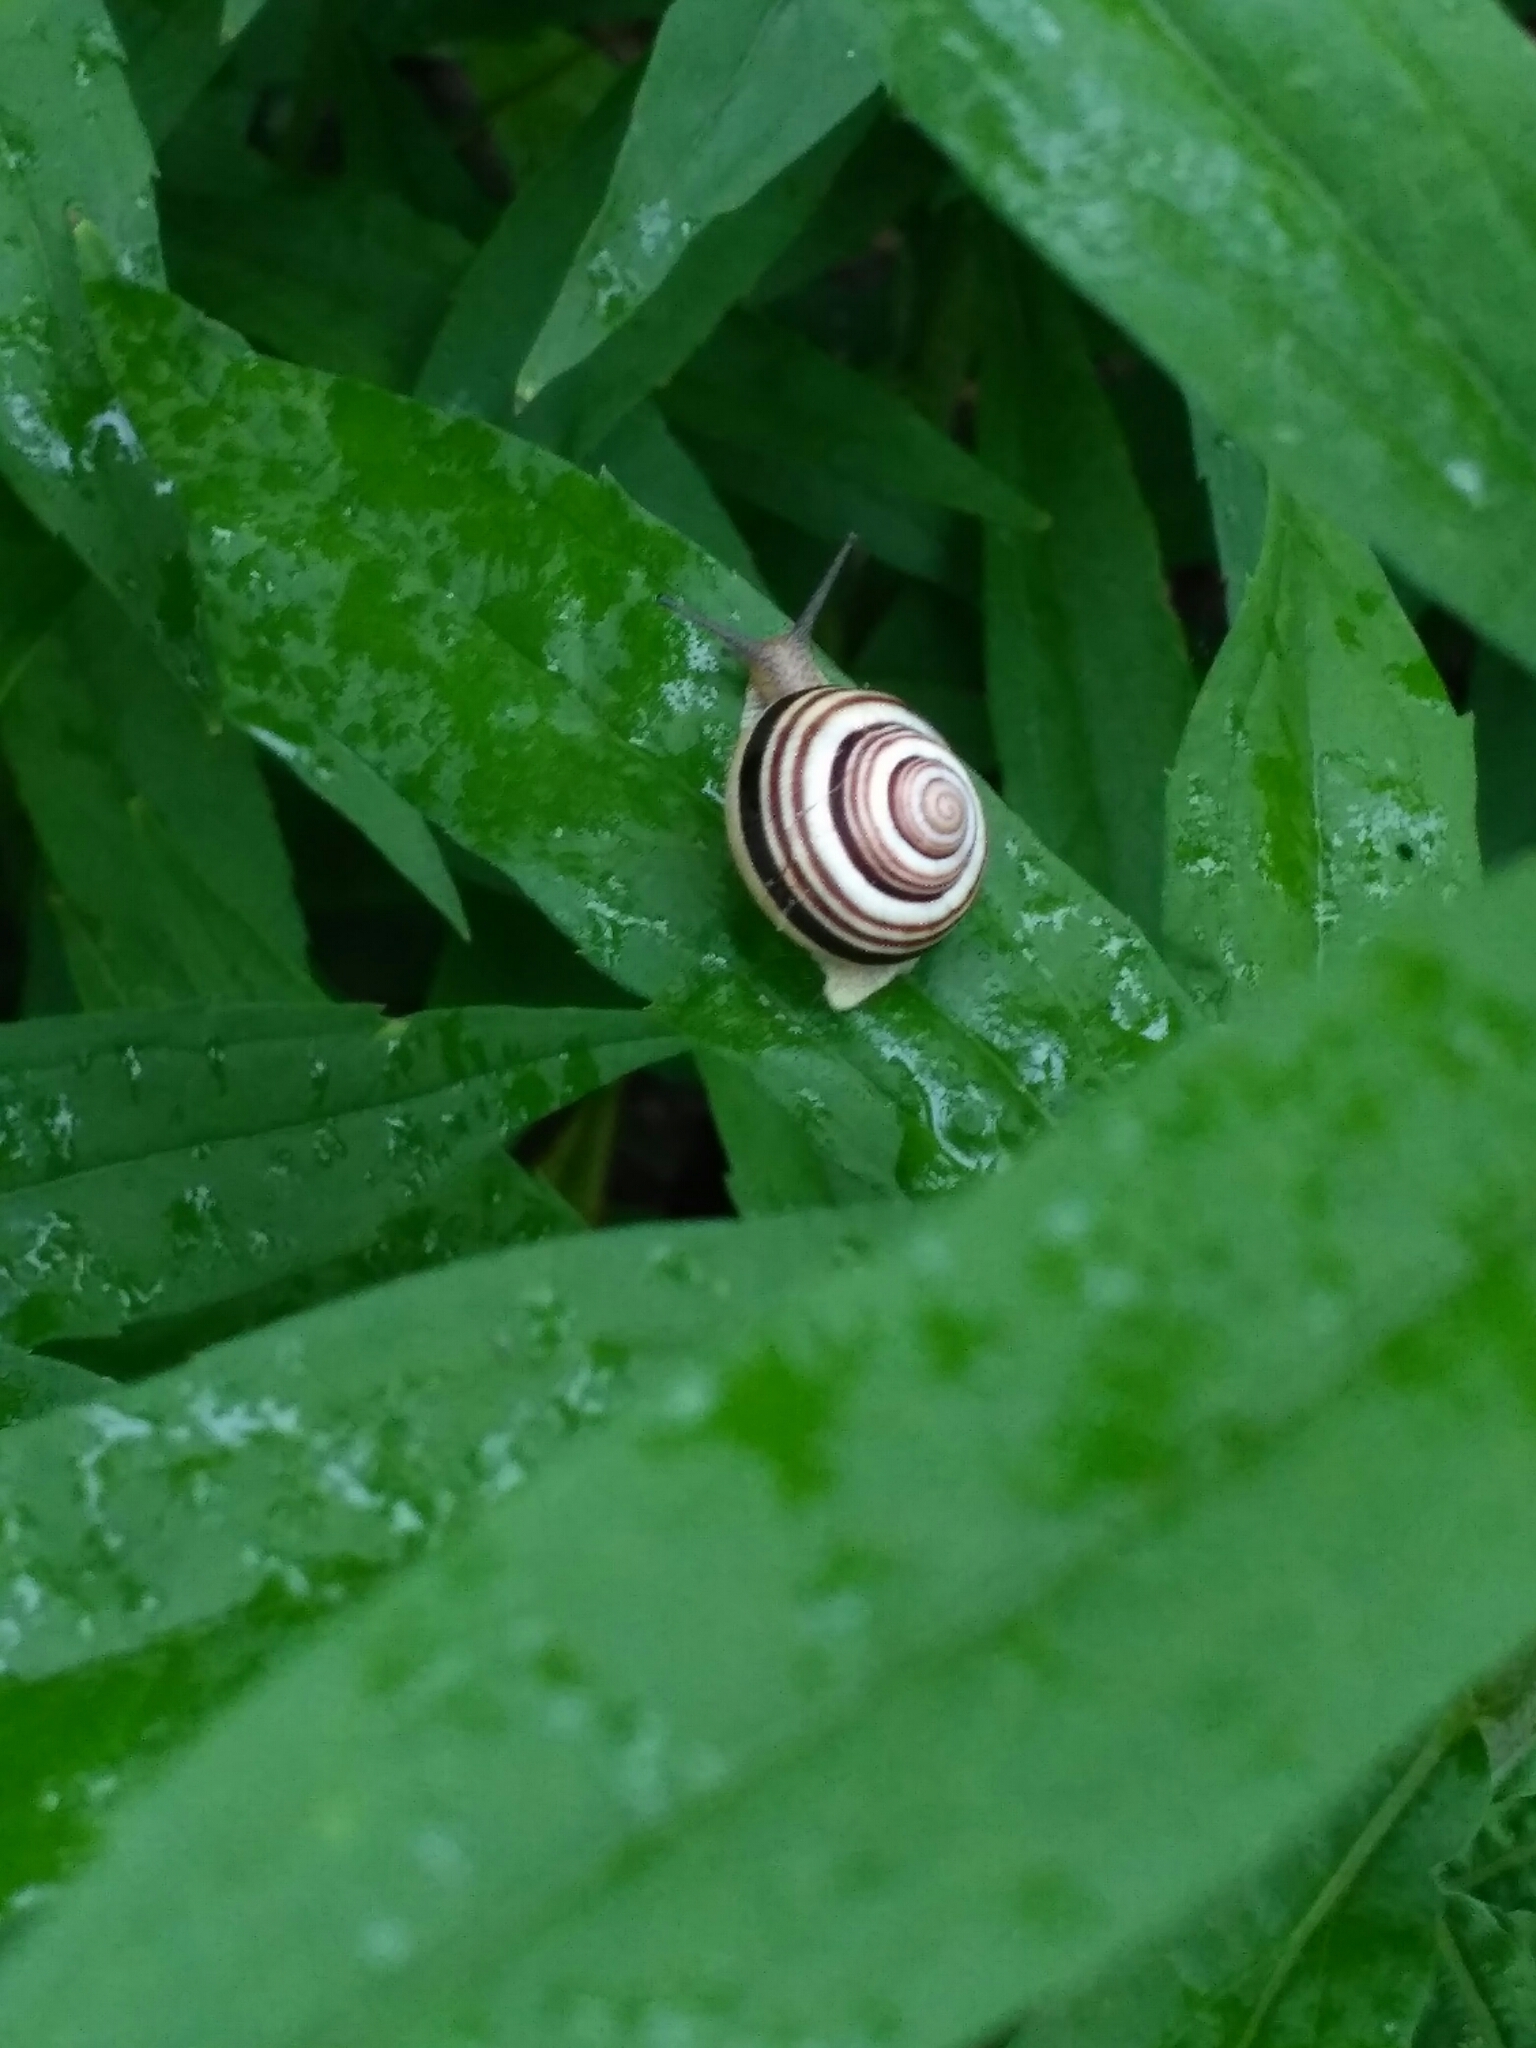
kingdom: Animalia
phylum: Mollusca
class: Gastropoda
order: Stylommatophora
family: Helicidae
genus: Caucasotachea
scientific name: Caucasotachea vindobonensis
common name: European helicid land snail
